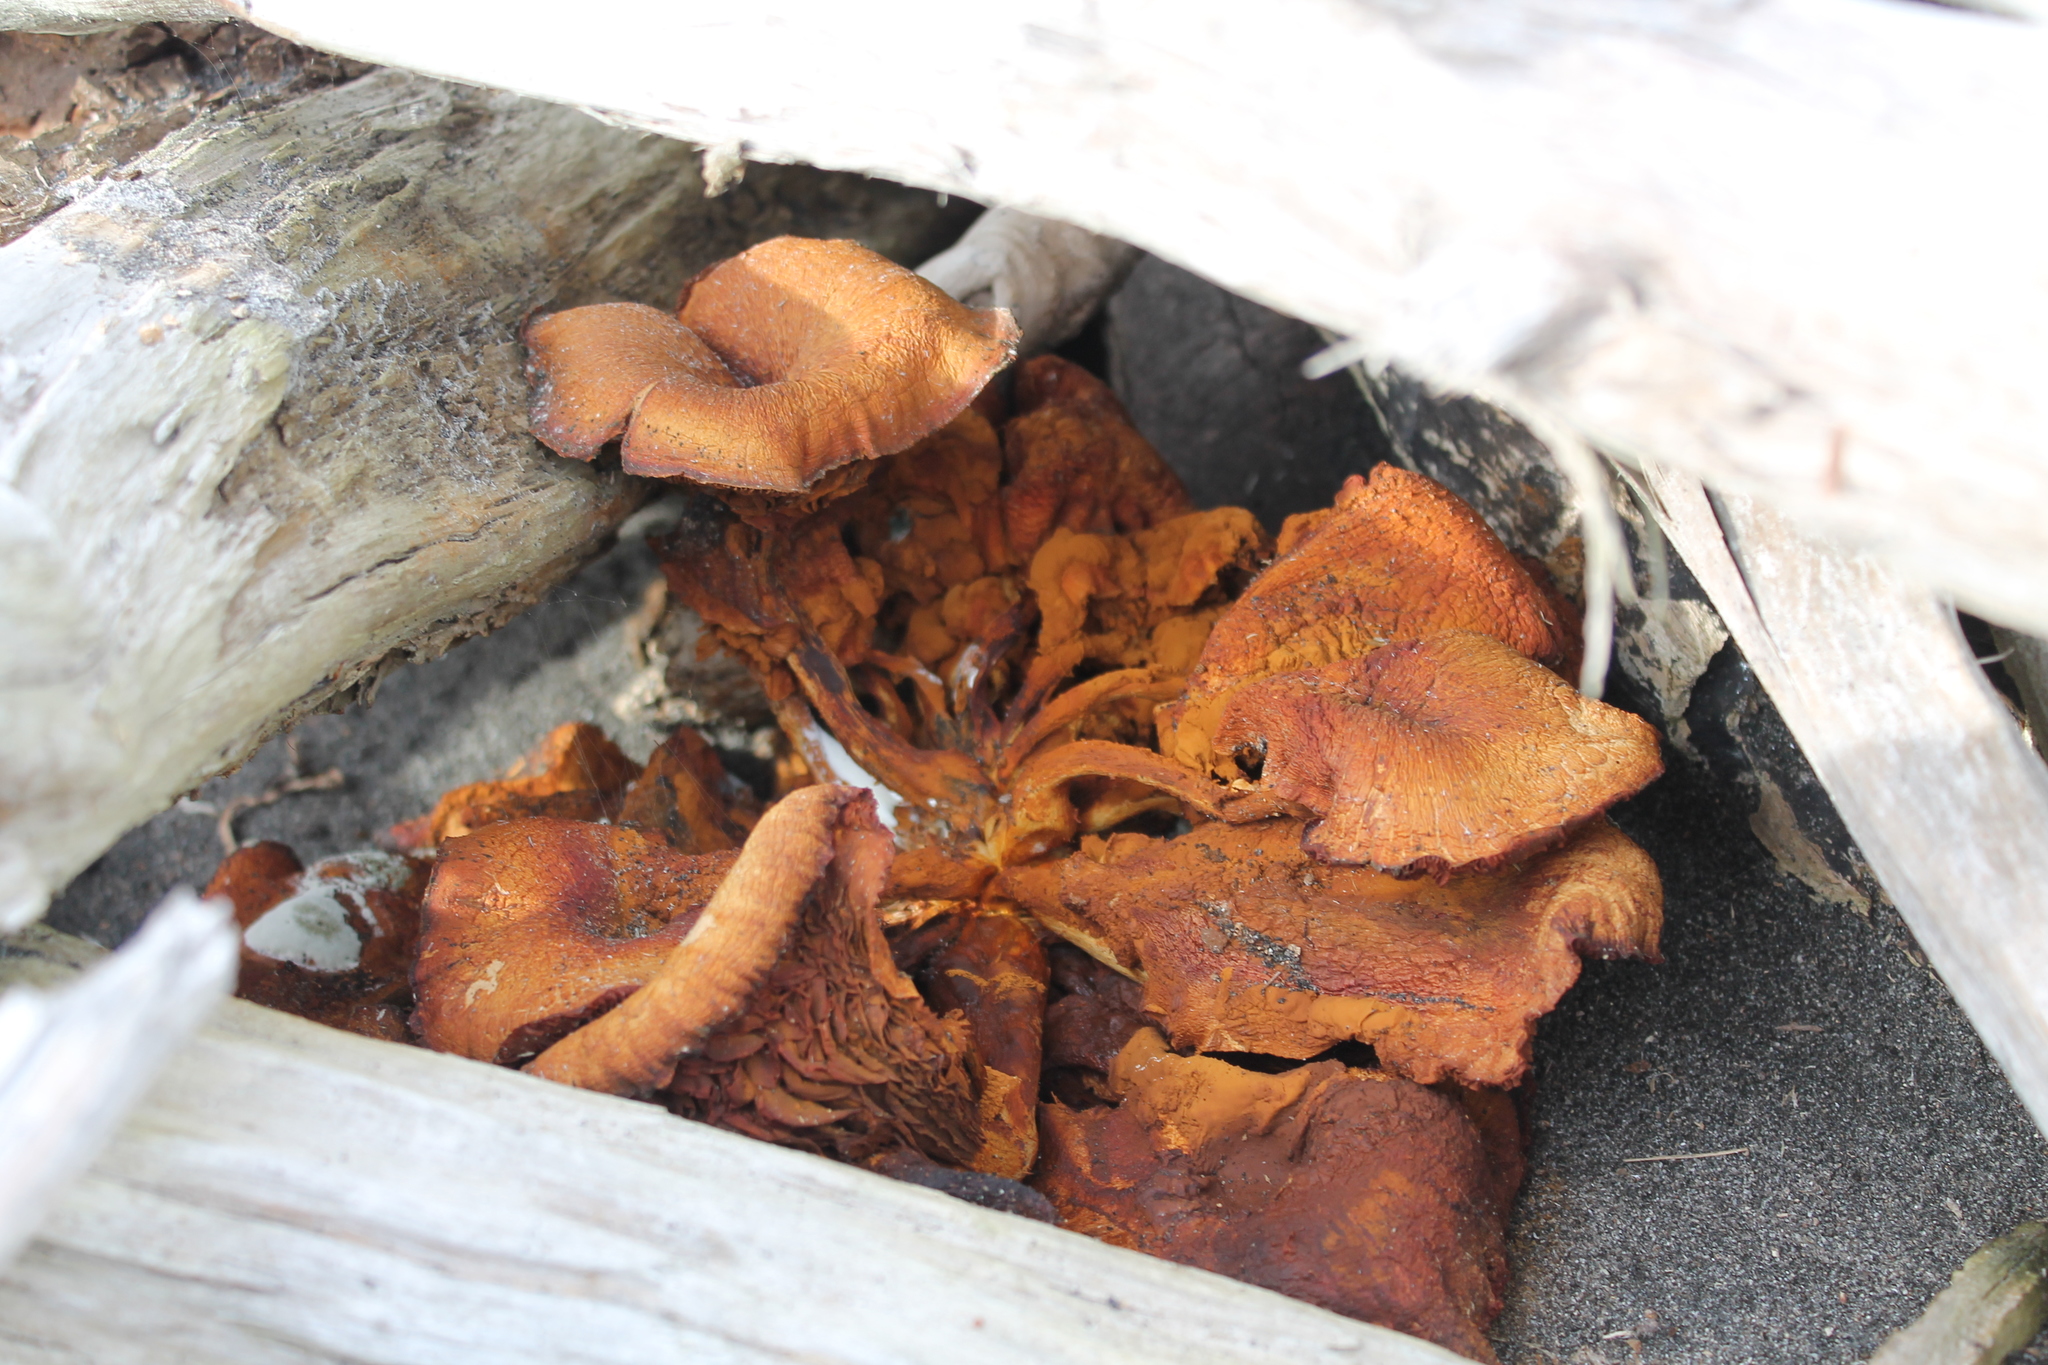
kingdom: Fungi
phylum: Basidiomycota
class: Agaricomycetes
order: Agaricales
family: Hymenogastraceae
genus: Gymnopilus
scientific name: Gymnopilus junonius
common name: Spectacular rustgill
